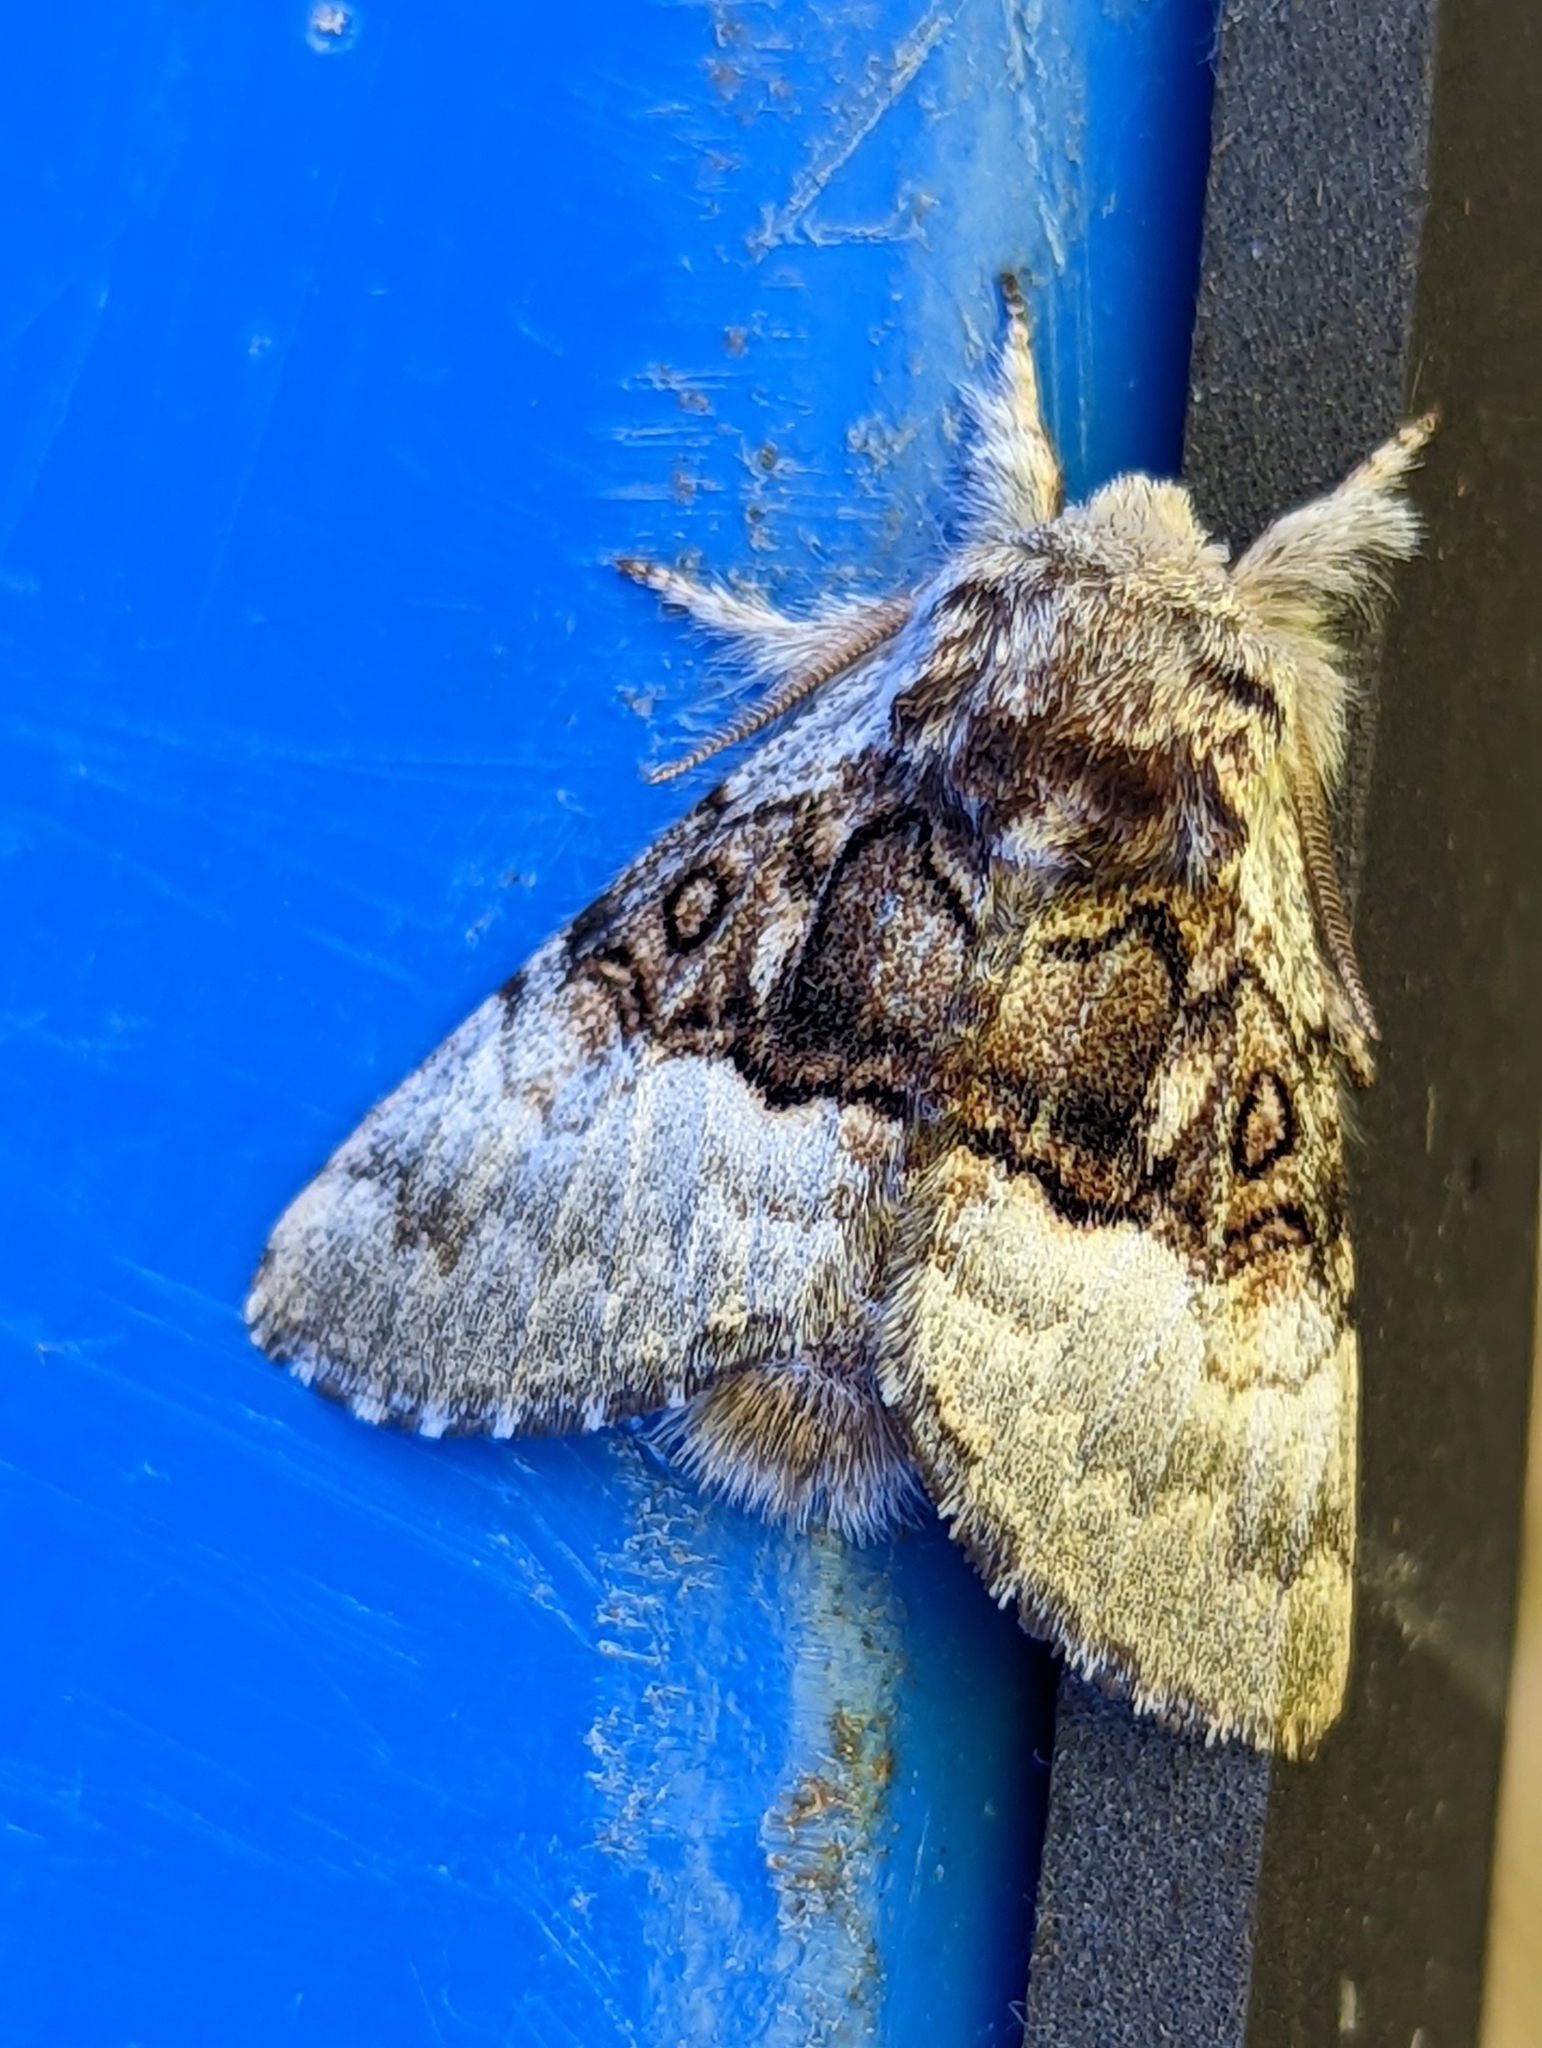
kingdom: Animalia
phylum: Arthropoda
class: Insecta
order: Lepidoptera
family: Noctuidae
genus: Colocasia
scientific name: Colocasia coryli
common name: Nut-tree tussock
